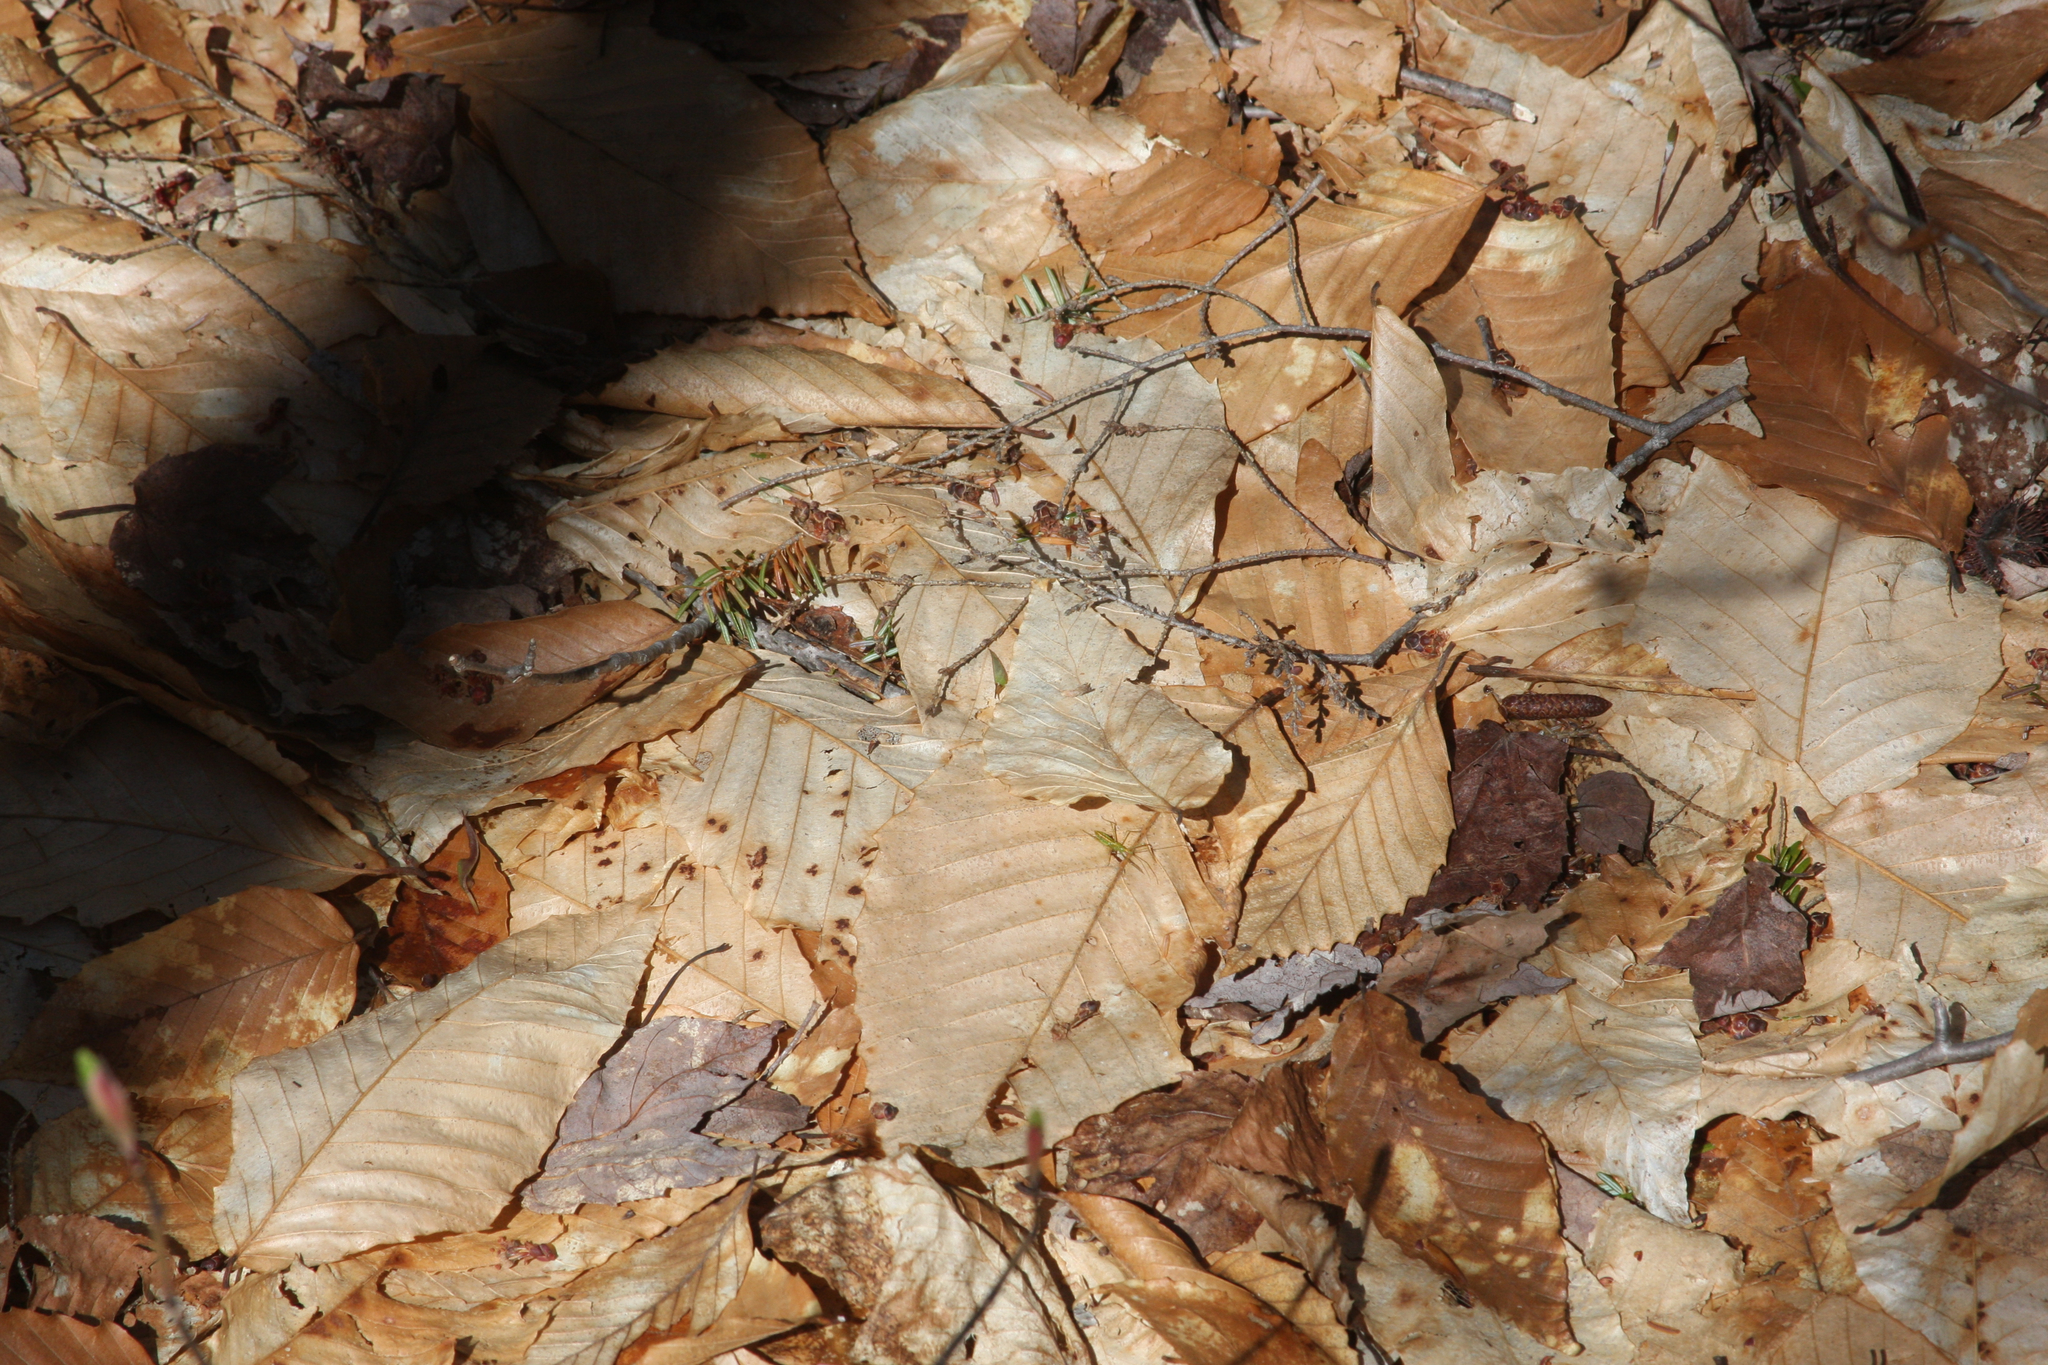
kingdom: Plantae
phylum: Tracheophyta
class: Magnoliopsida
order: Fagales
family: Fagaceae
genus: Fagus
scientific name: Fagus grandifolia
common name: American beech
